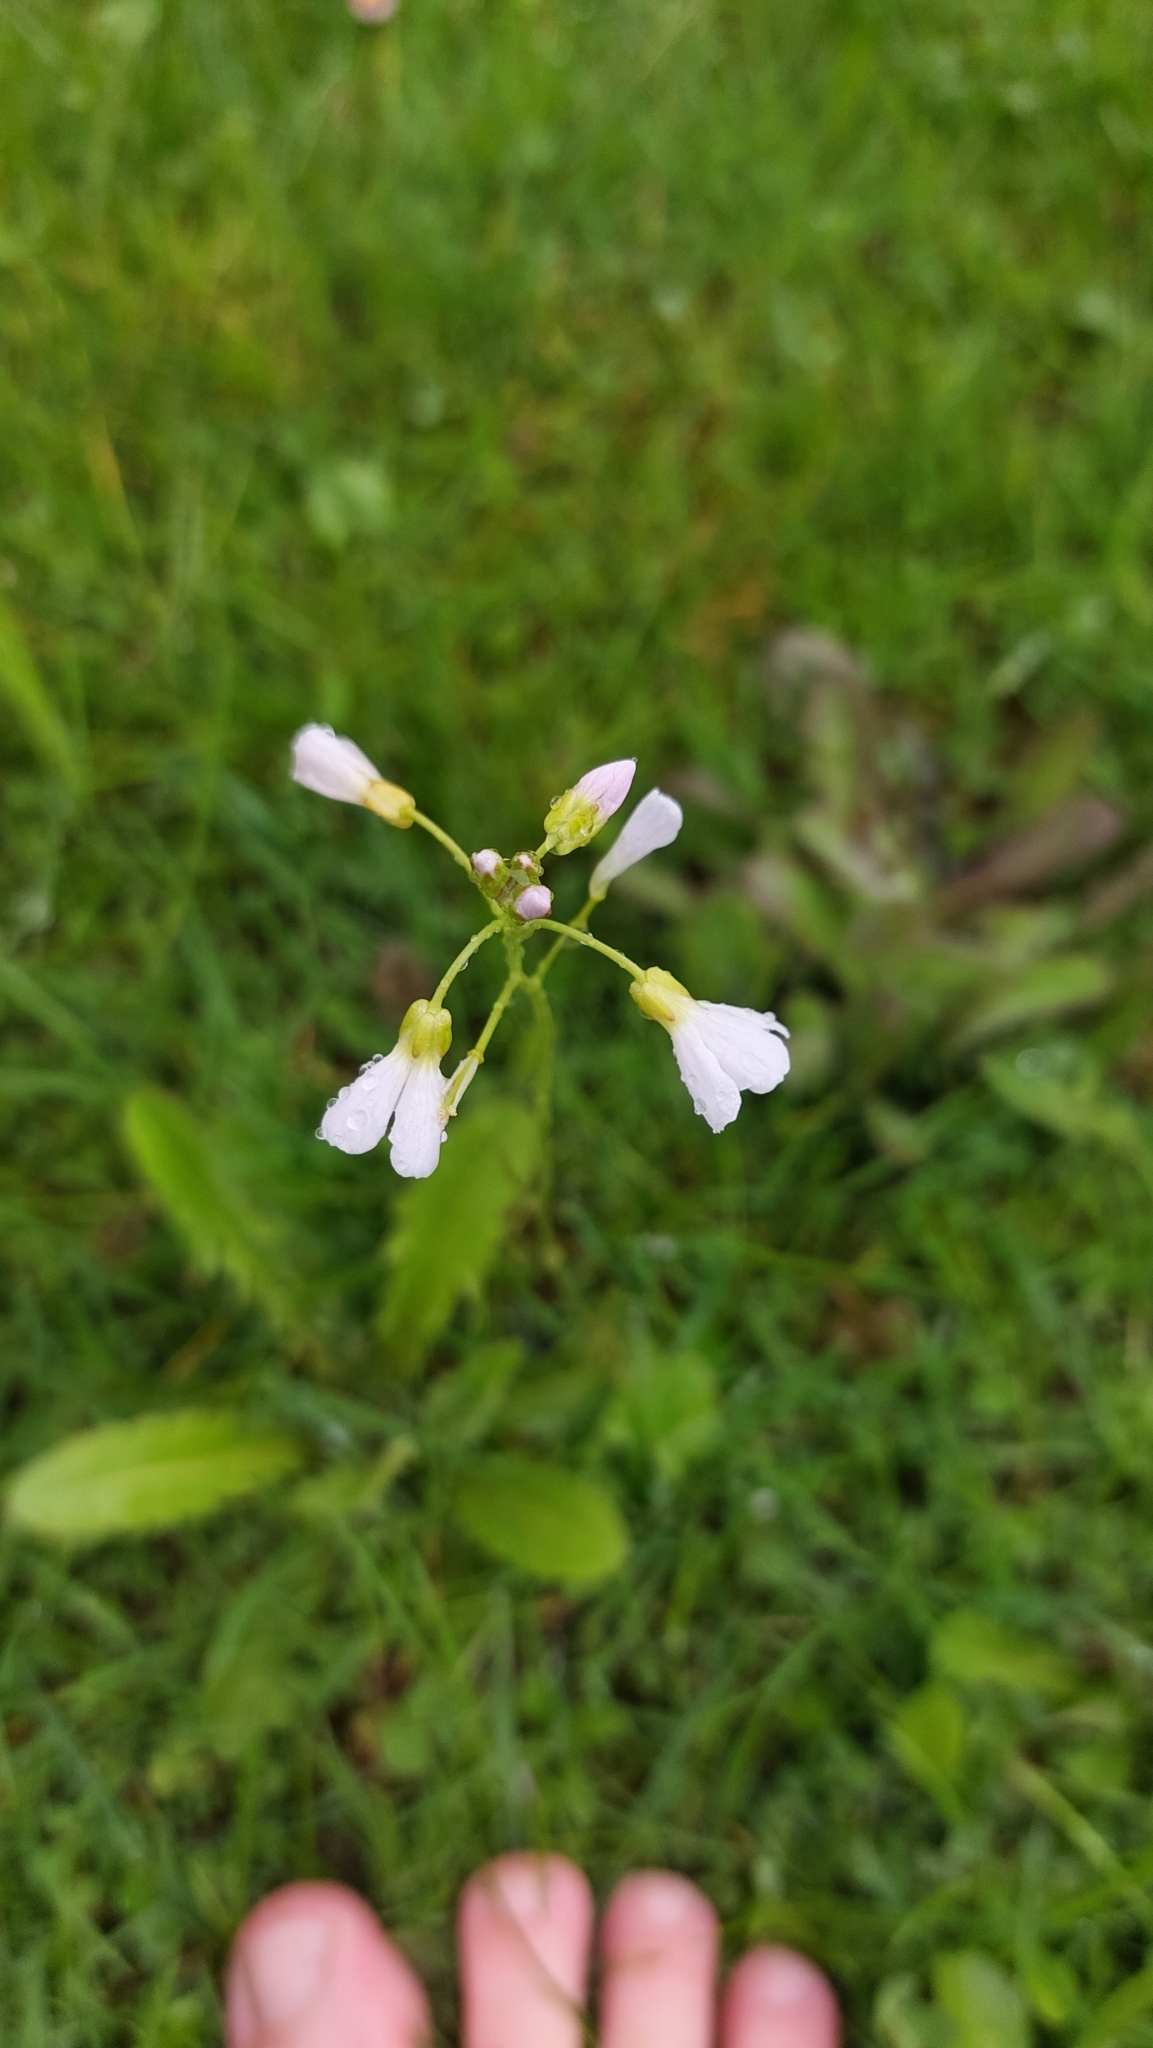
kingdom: Plantae
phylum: Tracheophyta
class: Magnoliopsida
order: Brassicales
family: Brassicaceae
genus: Cardamine
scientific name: Cardamine pratensis
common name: Cuckoo flower
